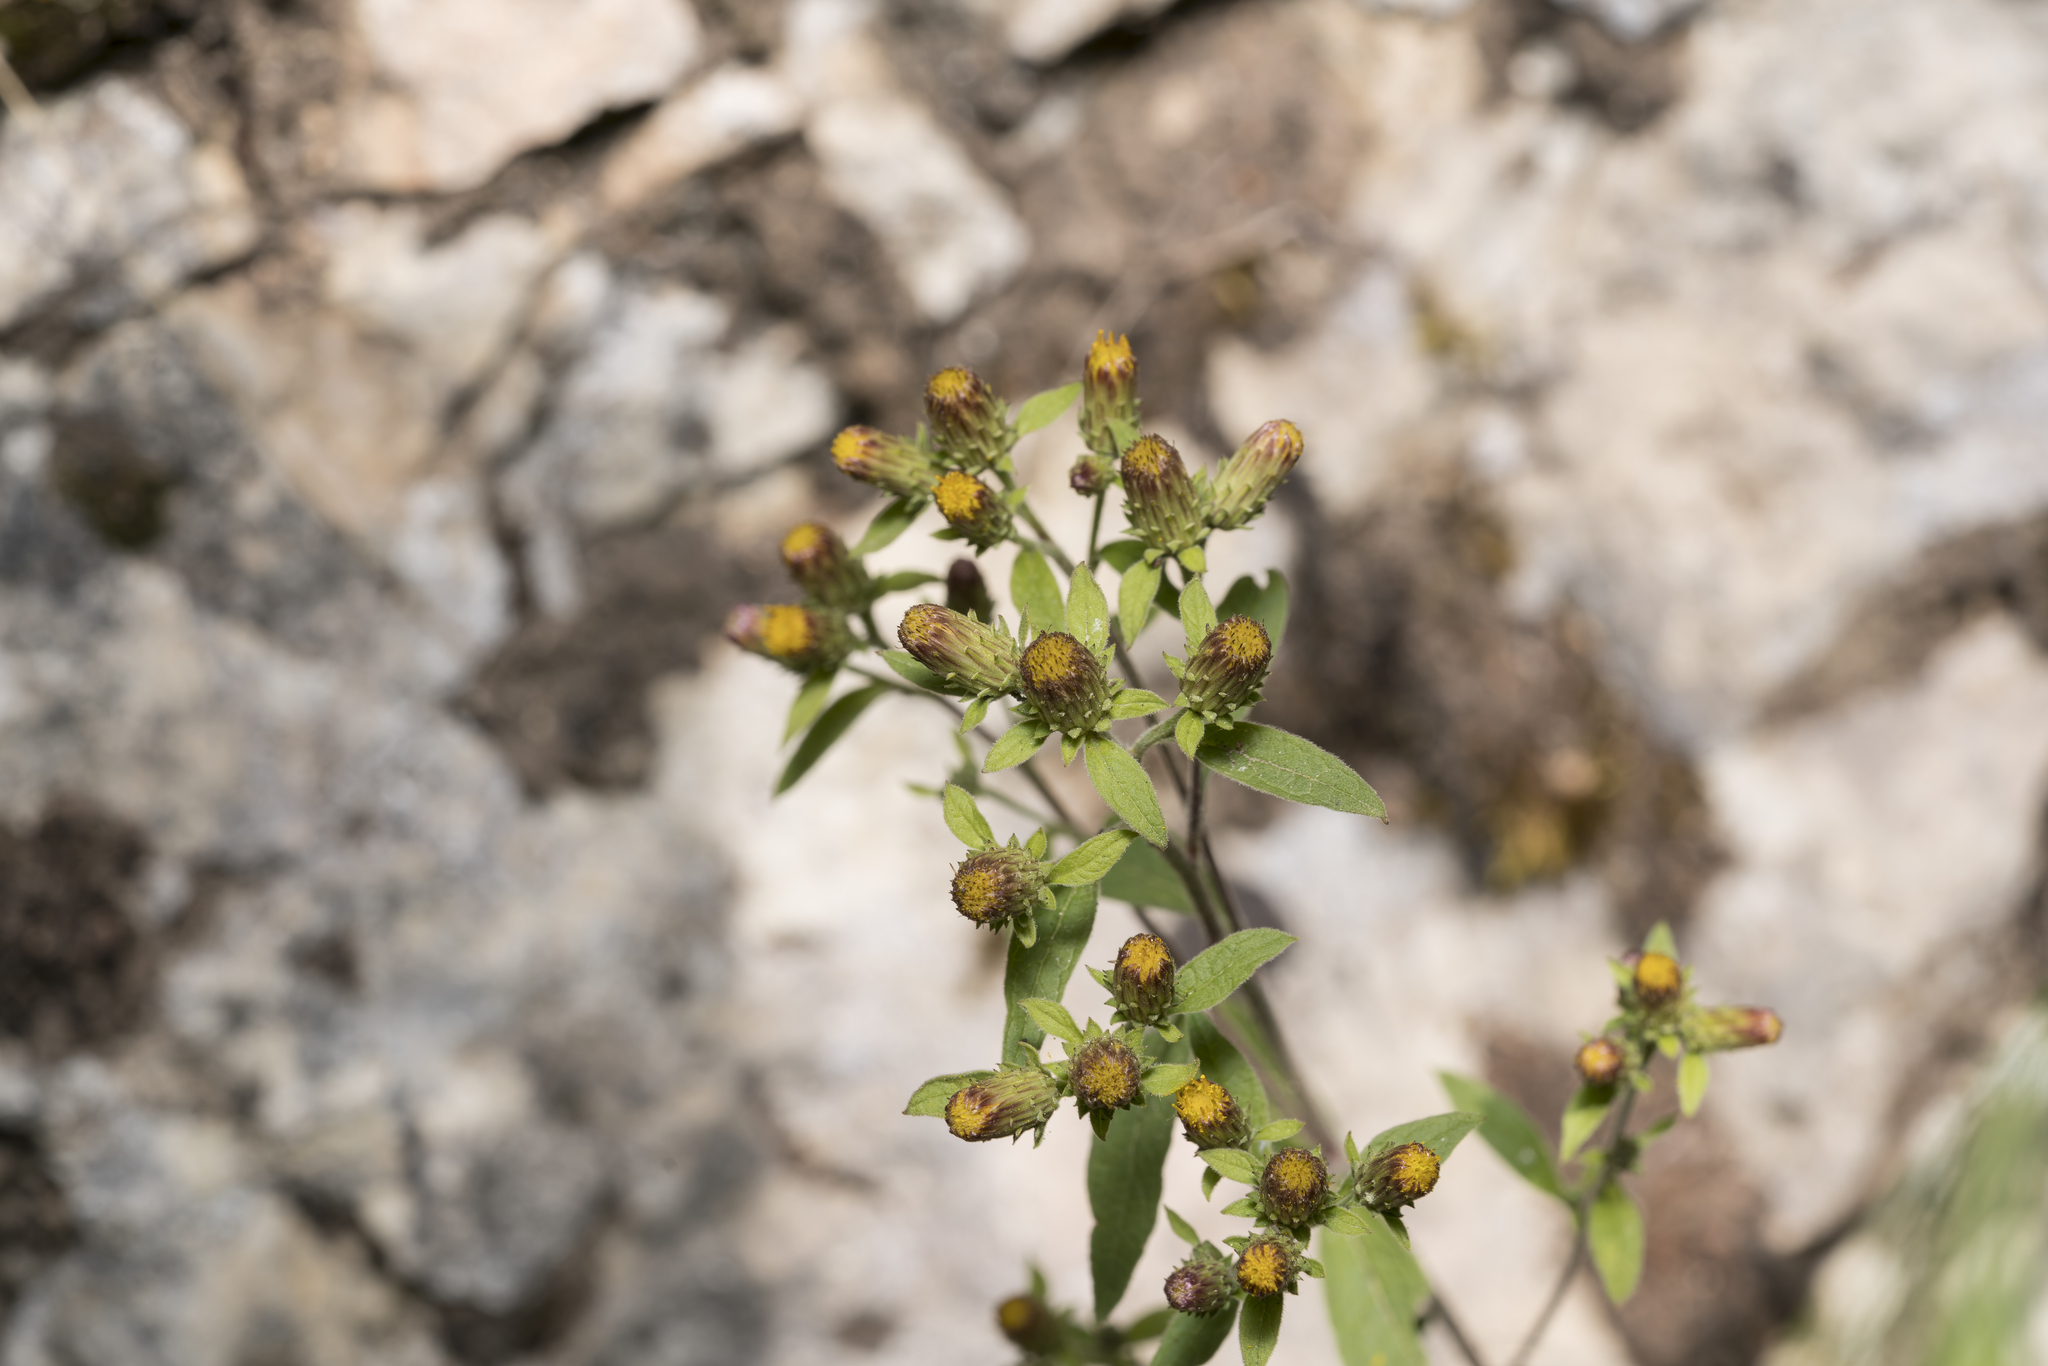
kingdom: Plantae
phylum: Tracheophyta
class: Magnoliopsida
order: Asterales
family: Asteraceae
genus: Pentanema
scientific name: Pentanema squarrosum
